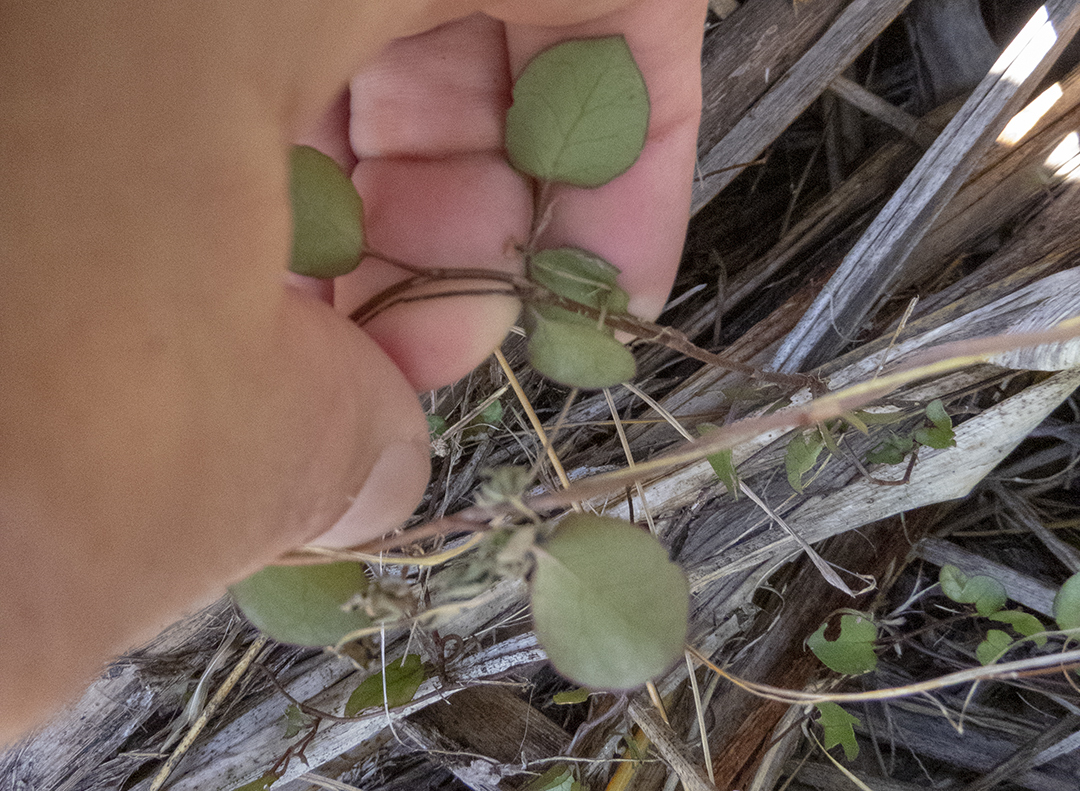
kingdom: Plantae
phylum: Tracheophyta
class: Magnoliopsida
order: Caryophyllales
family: Polygonaceae
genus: Muehlenbeckia
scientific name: Muehlenbeckia australis
